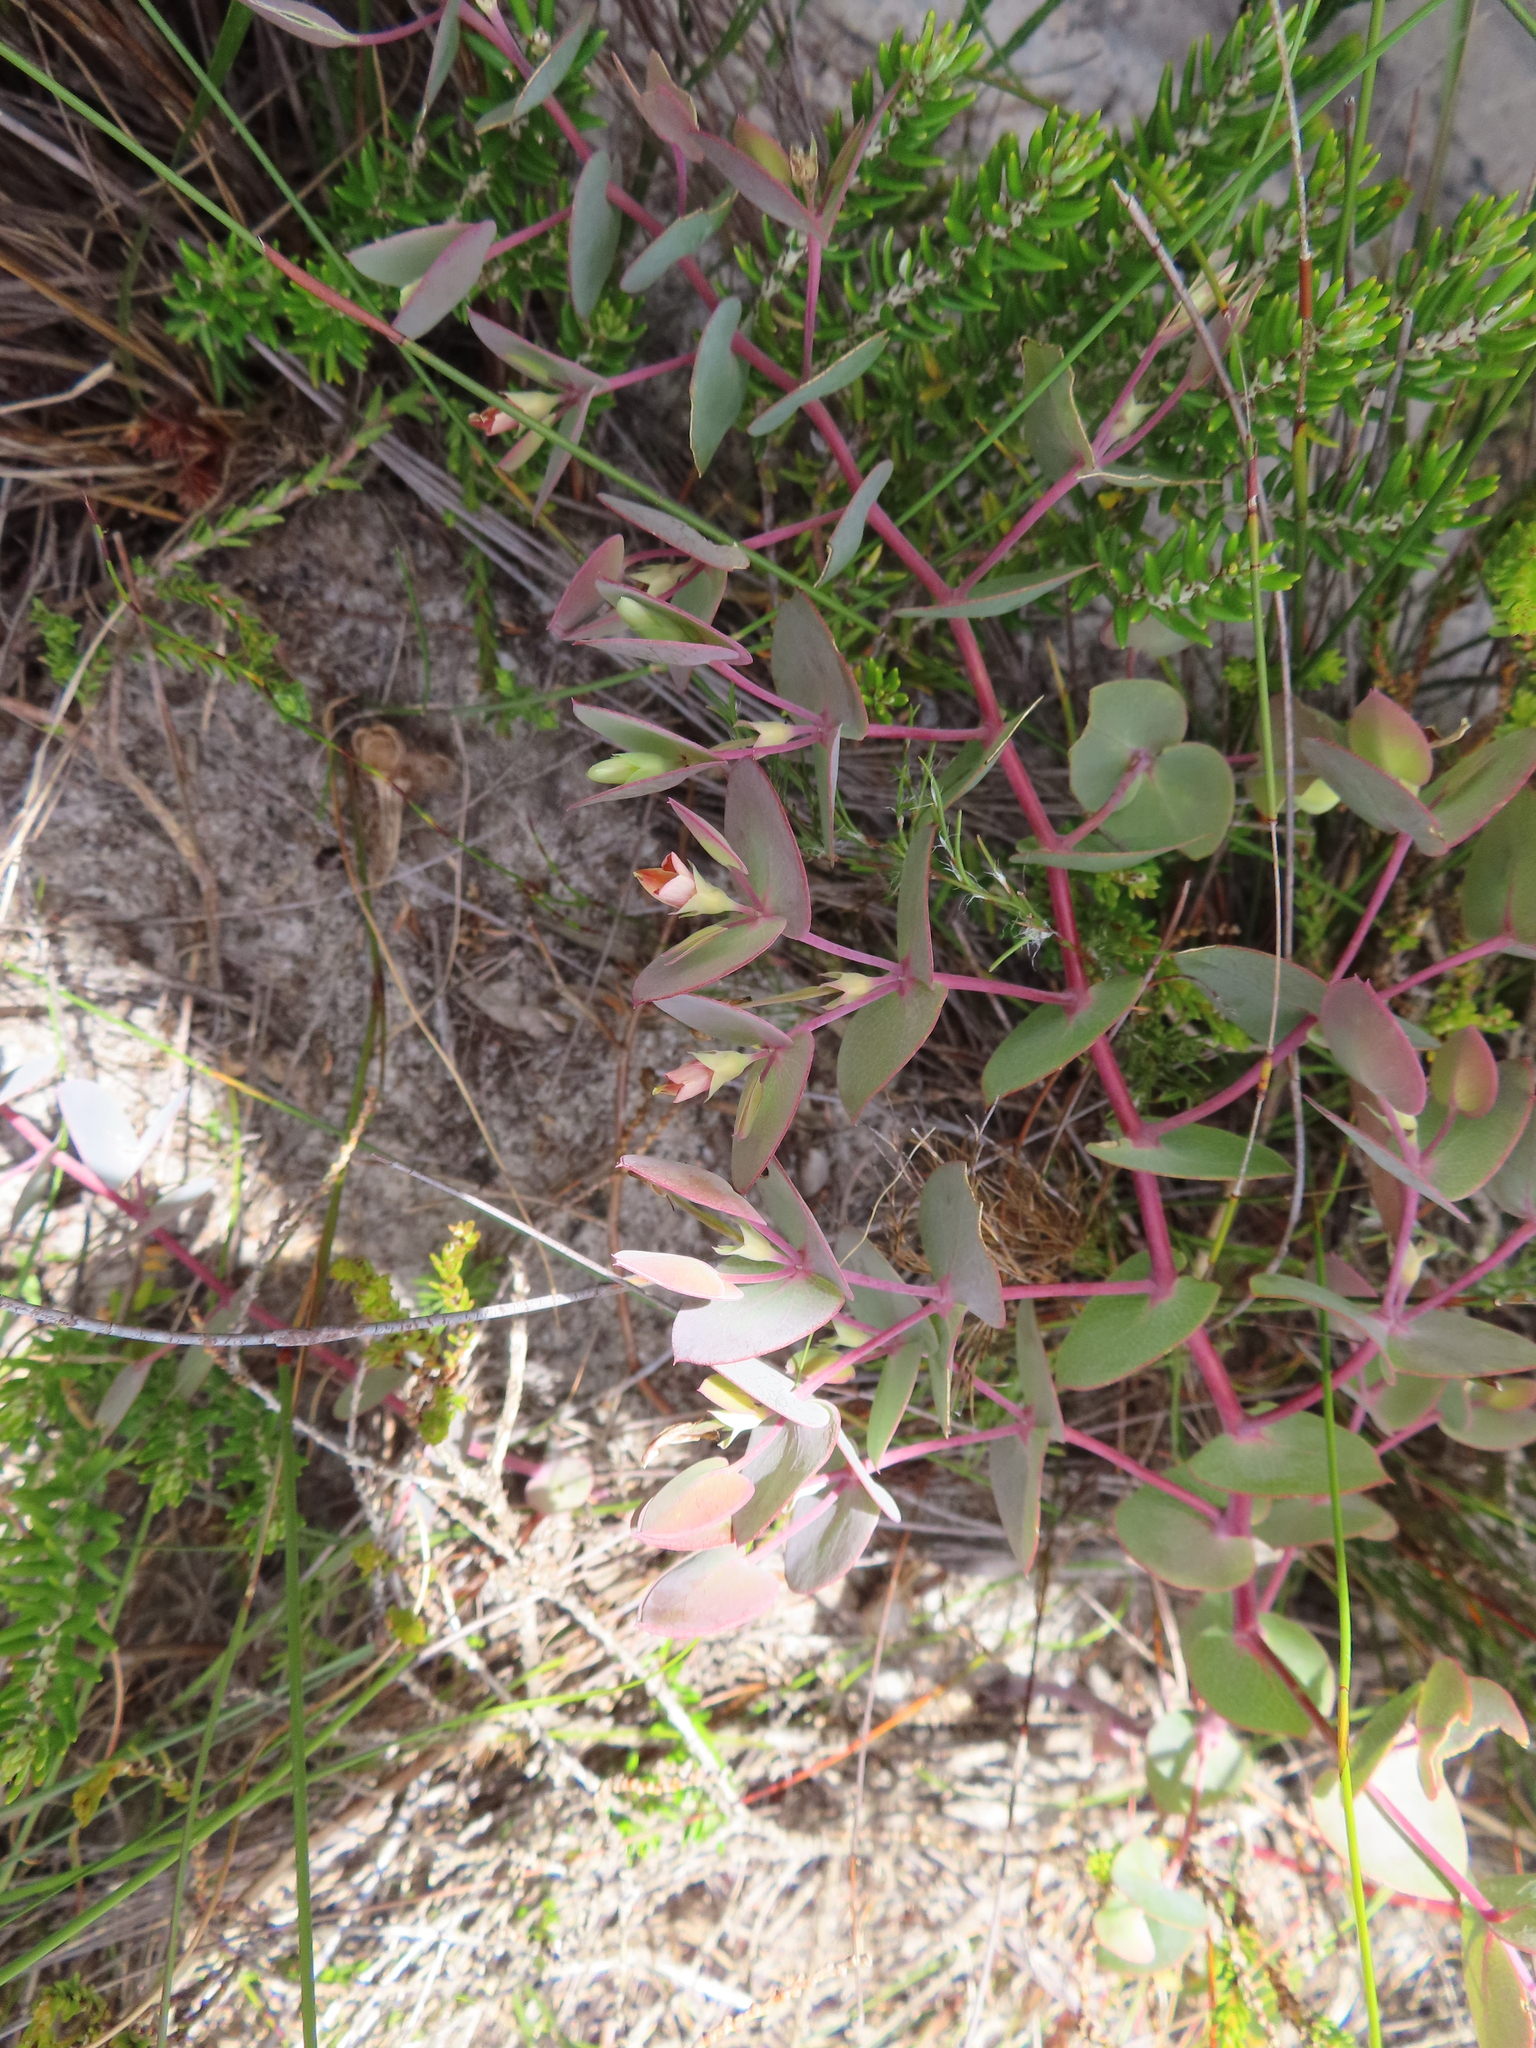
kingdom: Plantae
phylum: Tracheophyta
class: Magnoliopsida
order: Fabales
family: Fabaceae
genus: Rafnia
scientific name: Rafnia acuminata
